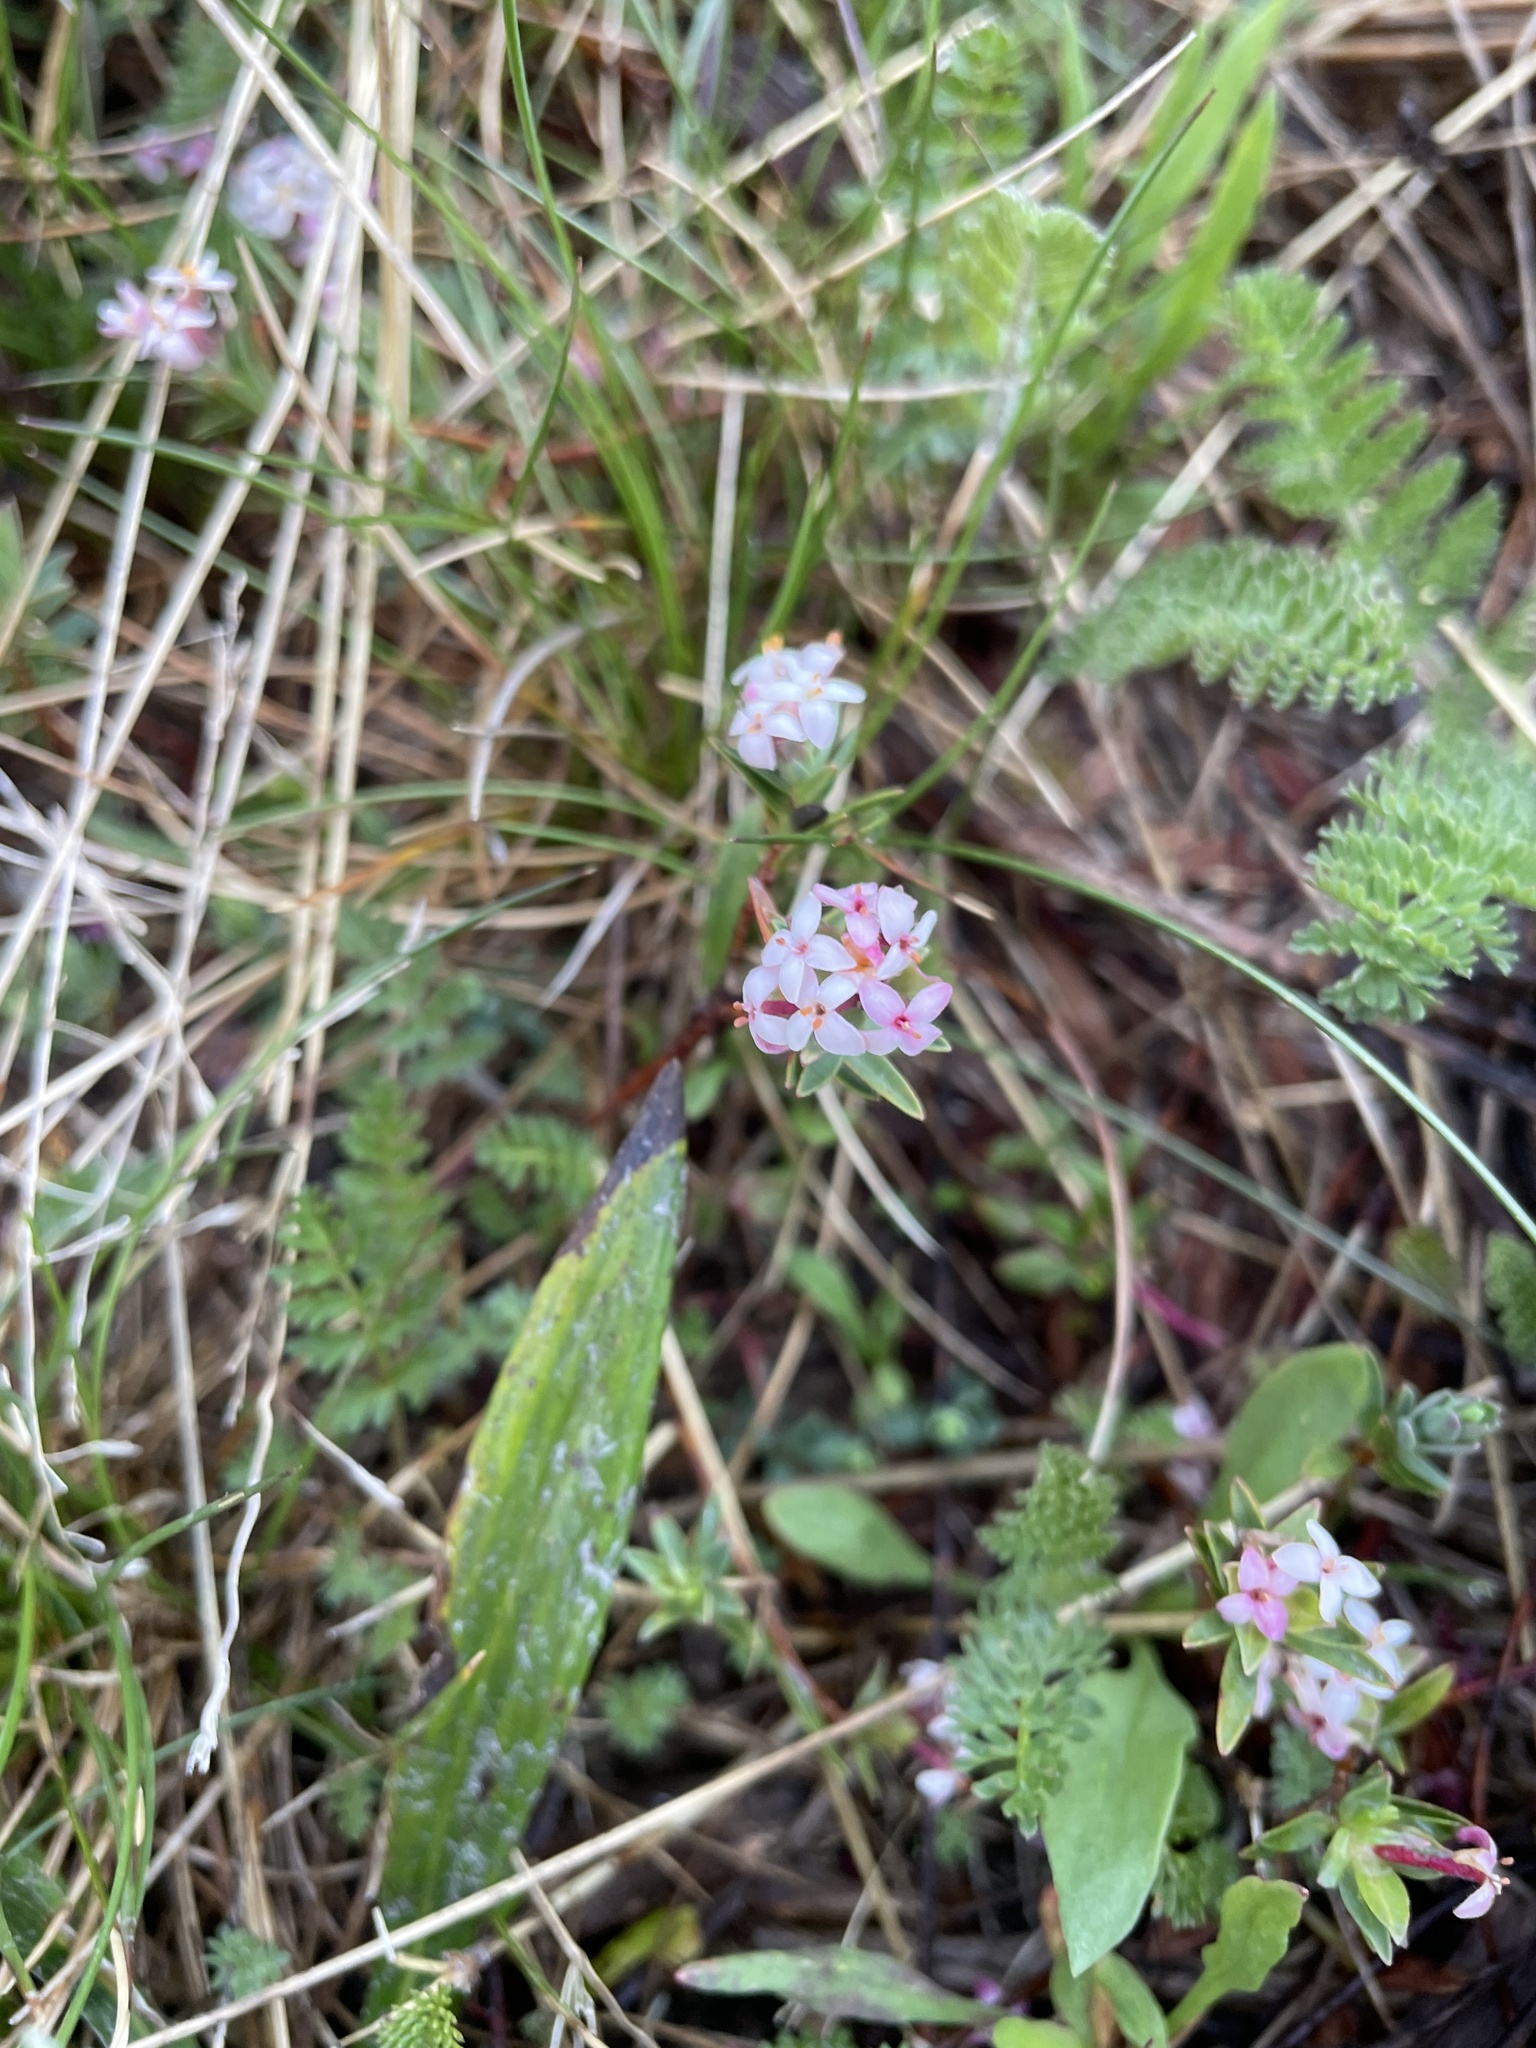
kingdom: Plantae
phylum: Tracheophyta
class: Magnoliopsida
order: Malvales
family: Thymelaeaceae
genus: Pimelea
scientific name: Pimelea alpina
